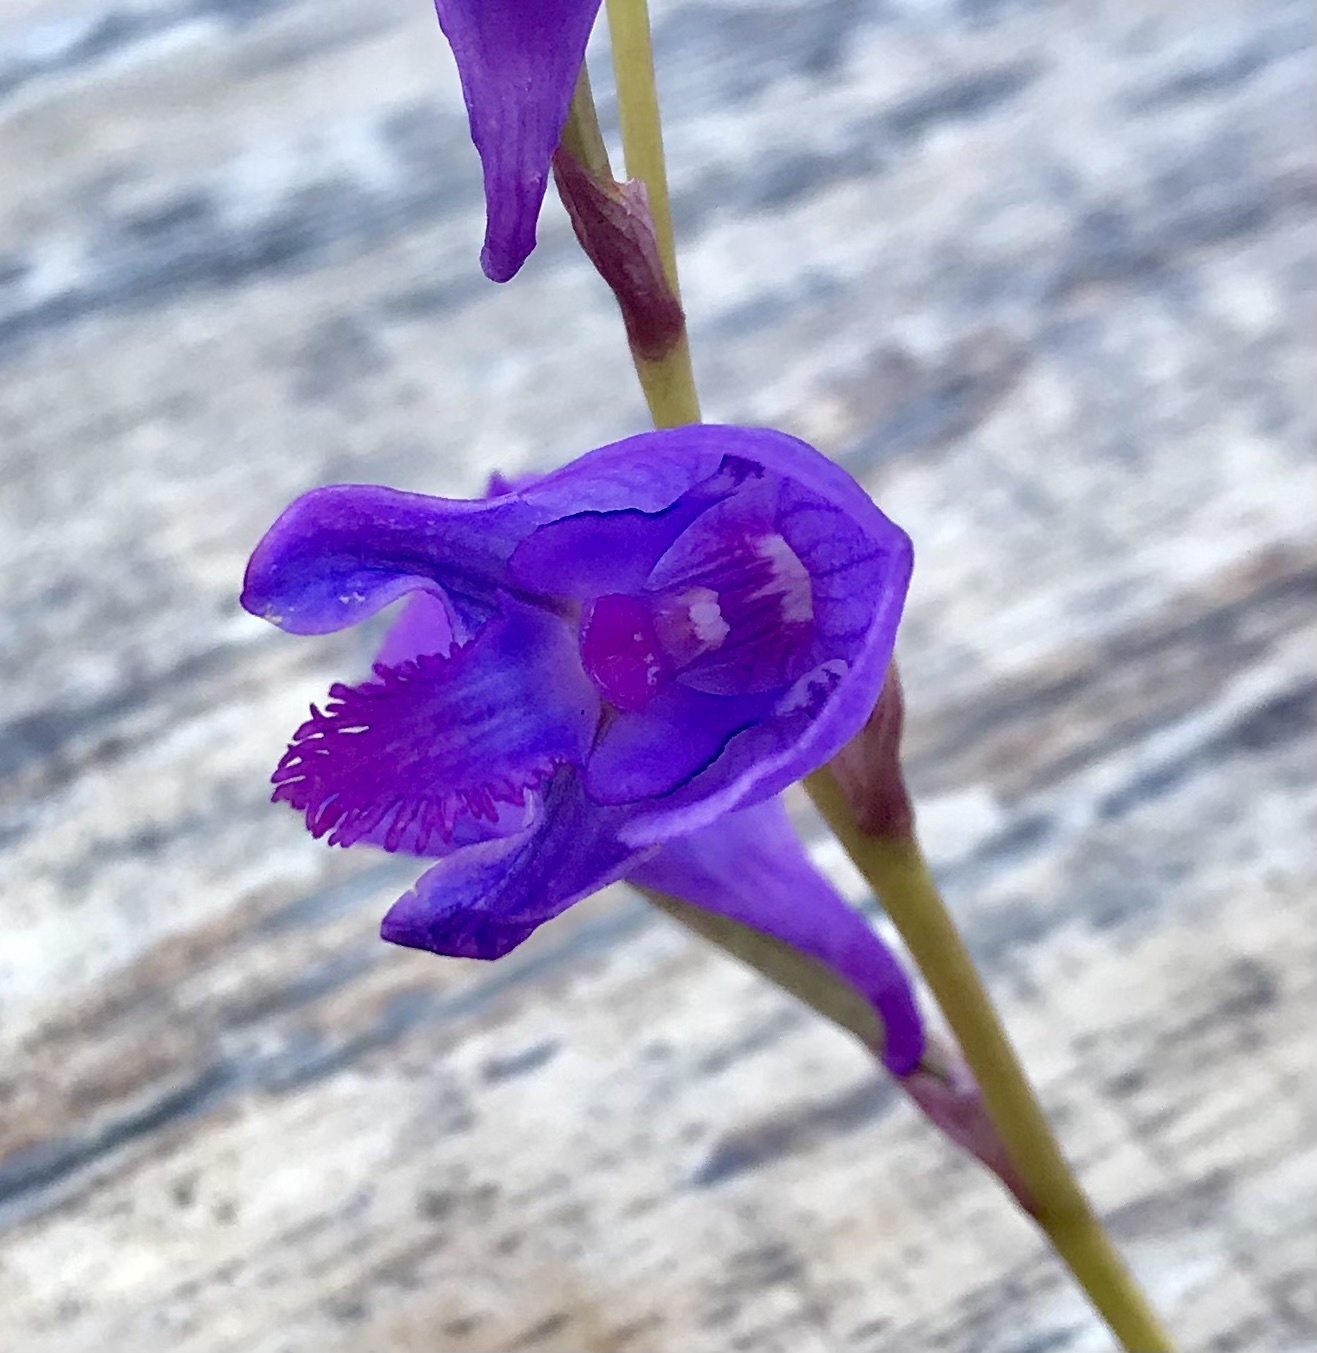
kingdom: Plantae
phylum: Tracheophyta
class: Liliopsida
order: Asparagales
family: Orchidaceae
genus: Disa
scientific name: Disa hians
